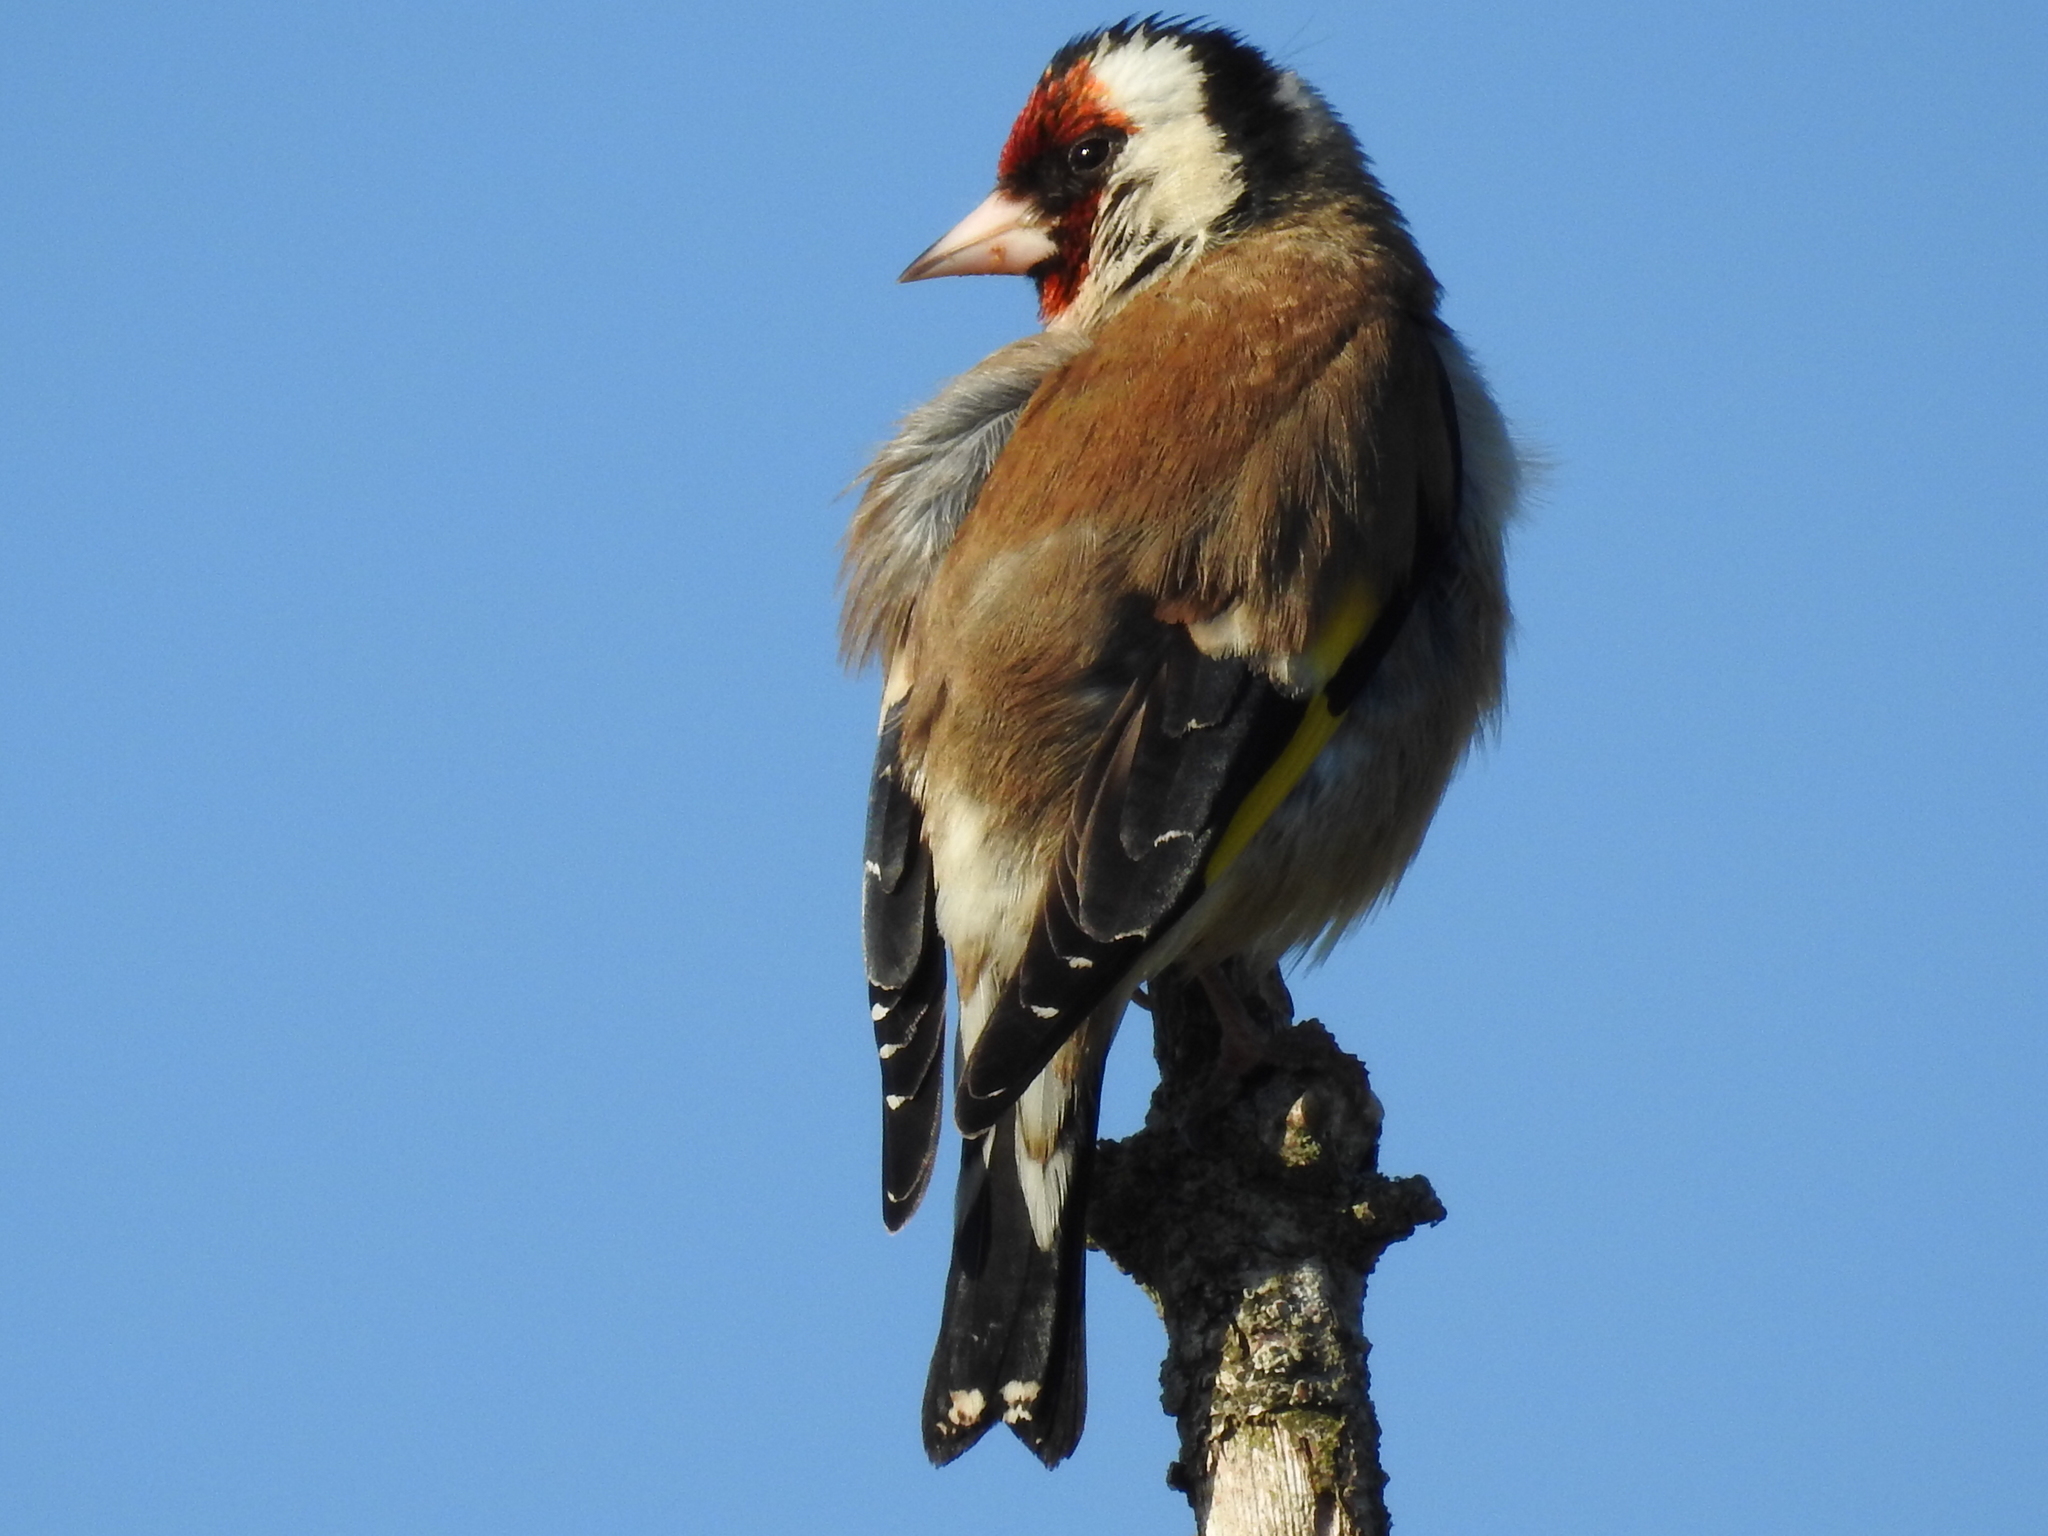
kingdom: Animalia
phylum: Chordata
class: Aves
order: Passeriformes
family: Fringillidae
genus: Carduelis
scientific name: Carduelis carduelis
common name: European goldfinch
